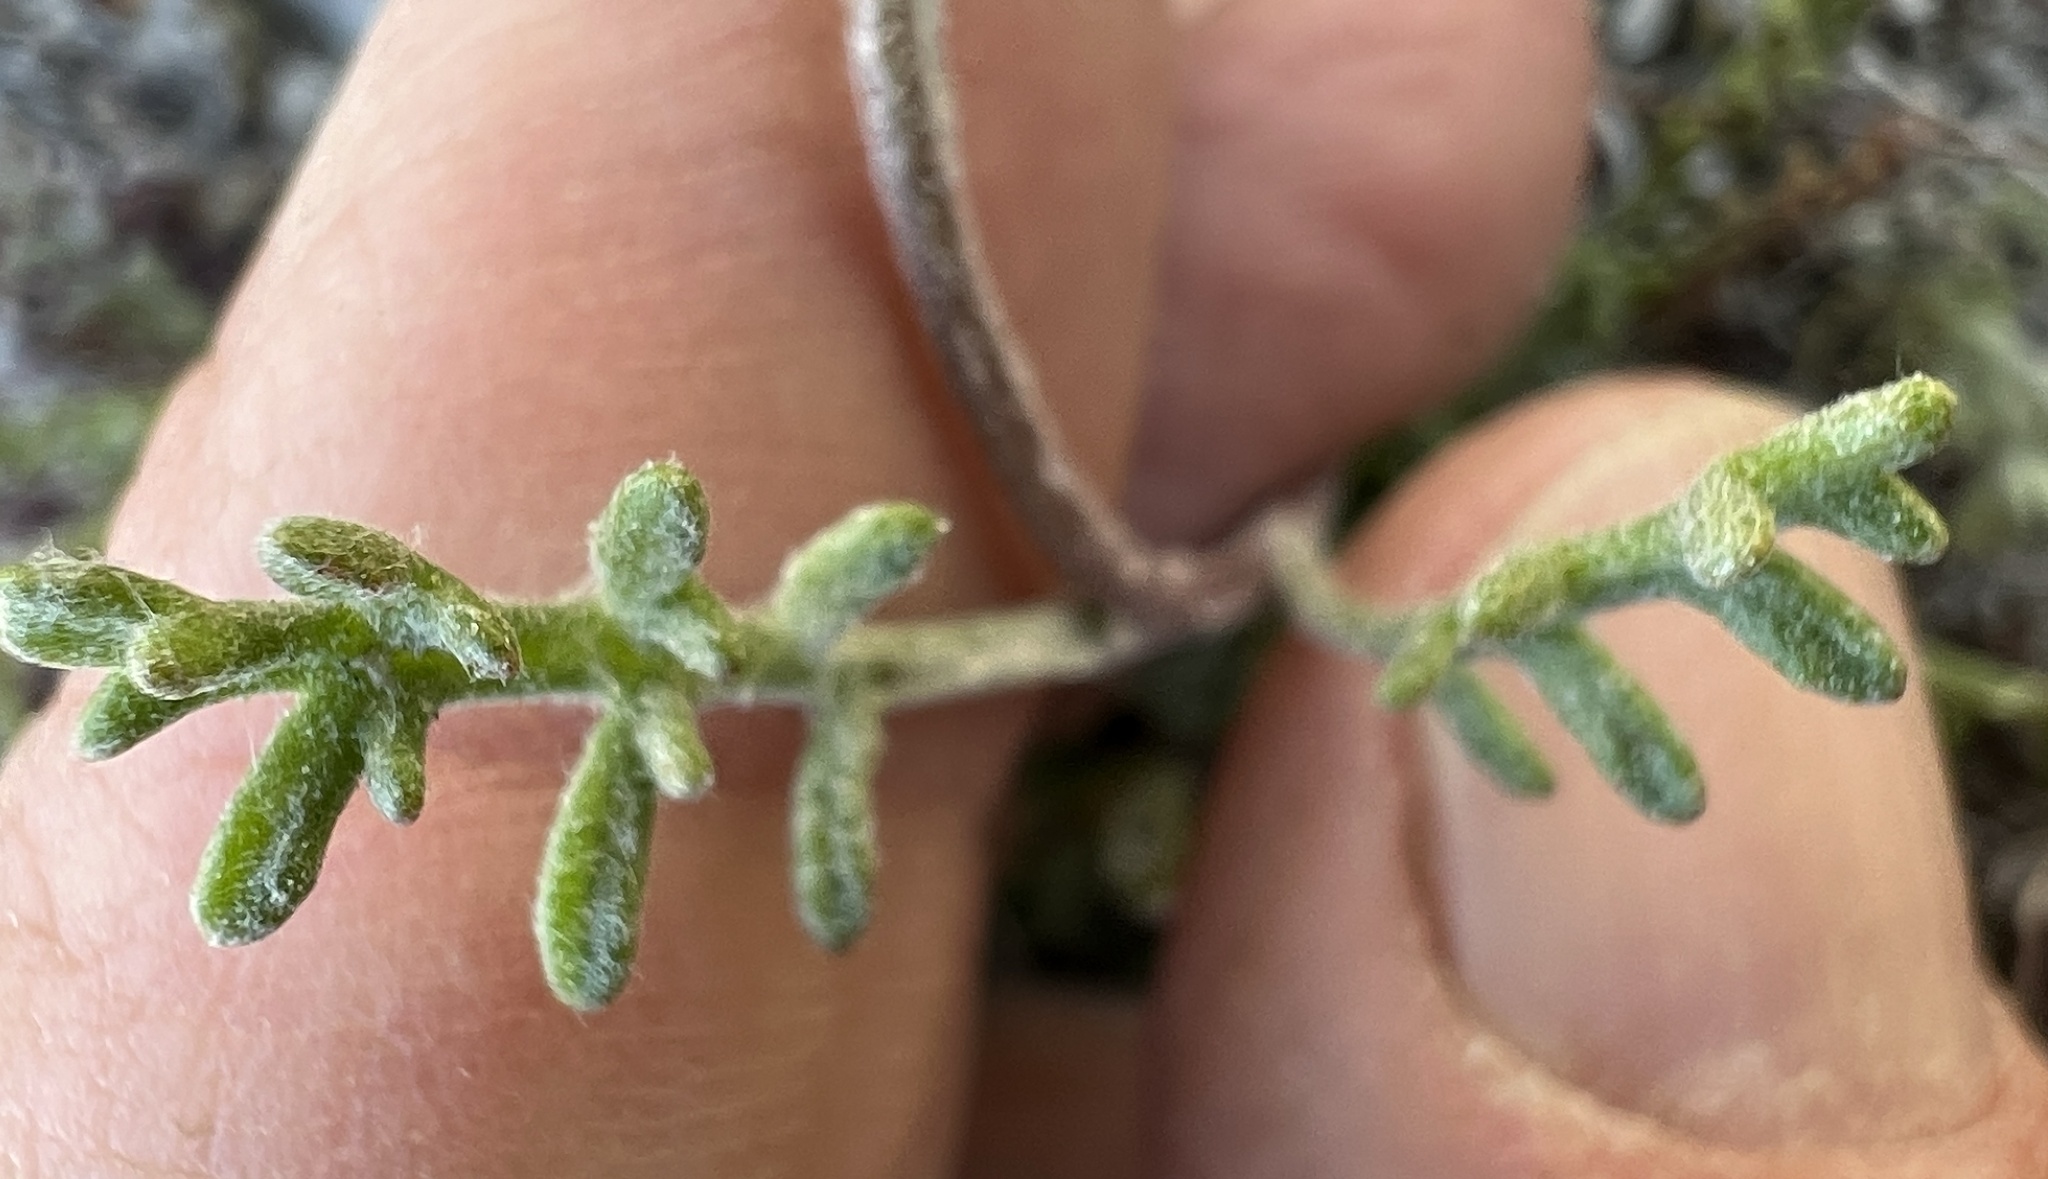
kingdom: Plantae
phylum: Tracheophyta
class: Magnoliopsida
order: Asterales
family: Asteraceae
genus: Chaenactis
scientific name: Chaenactis stevioides
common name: Desert pincushion
